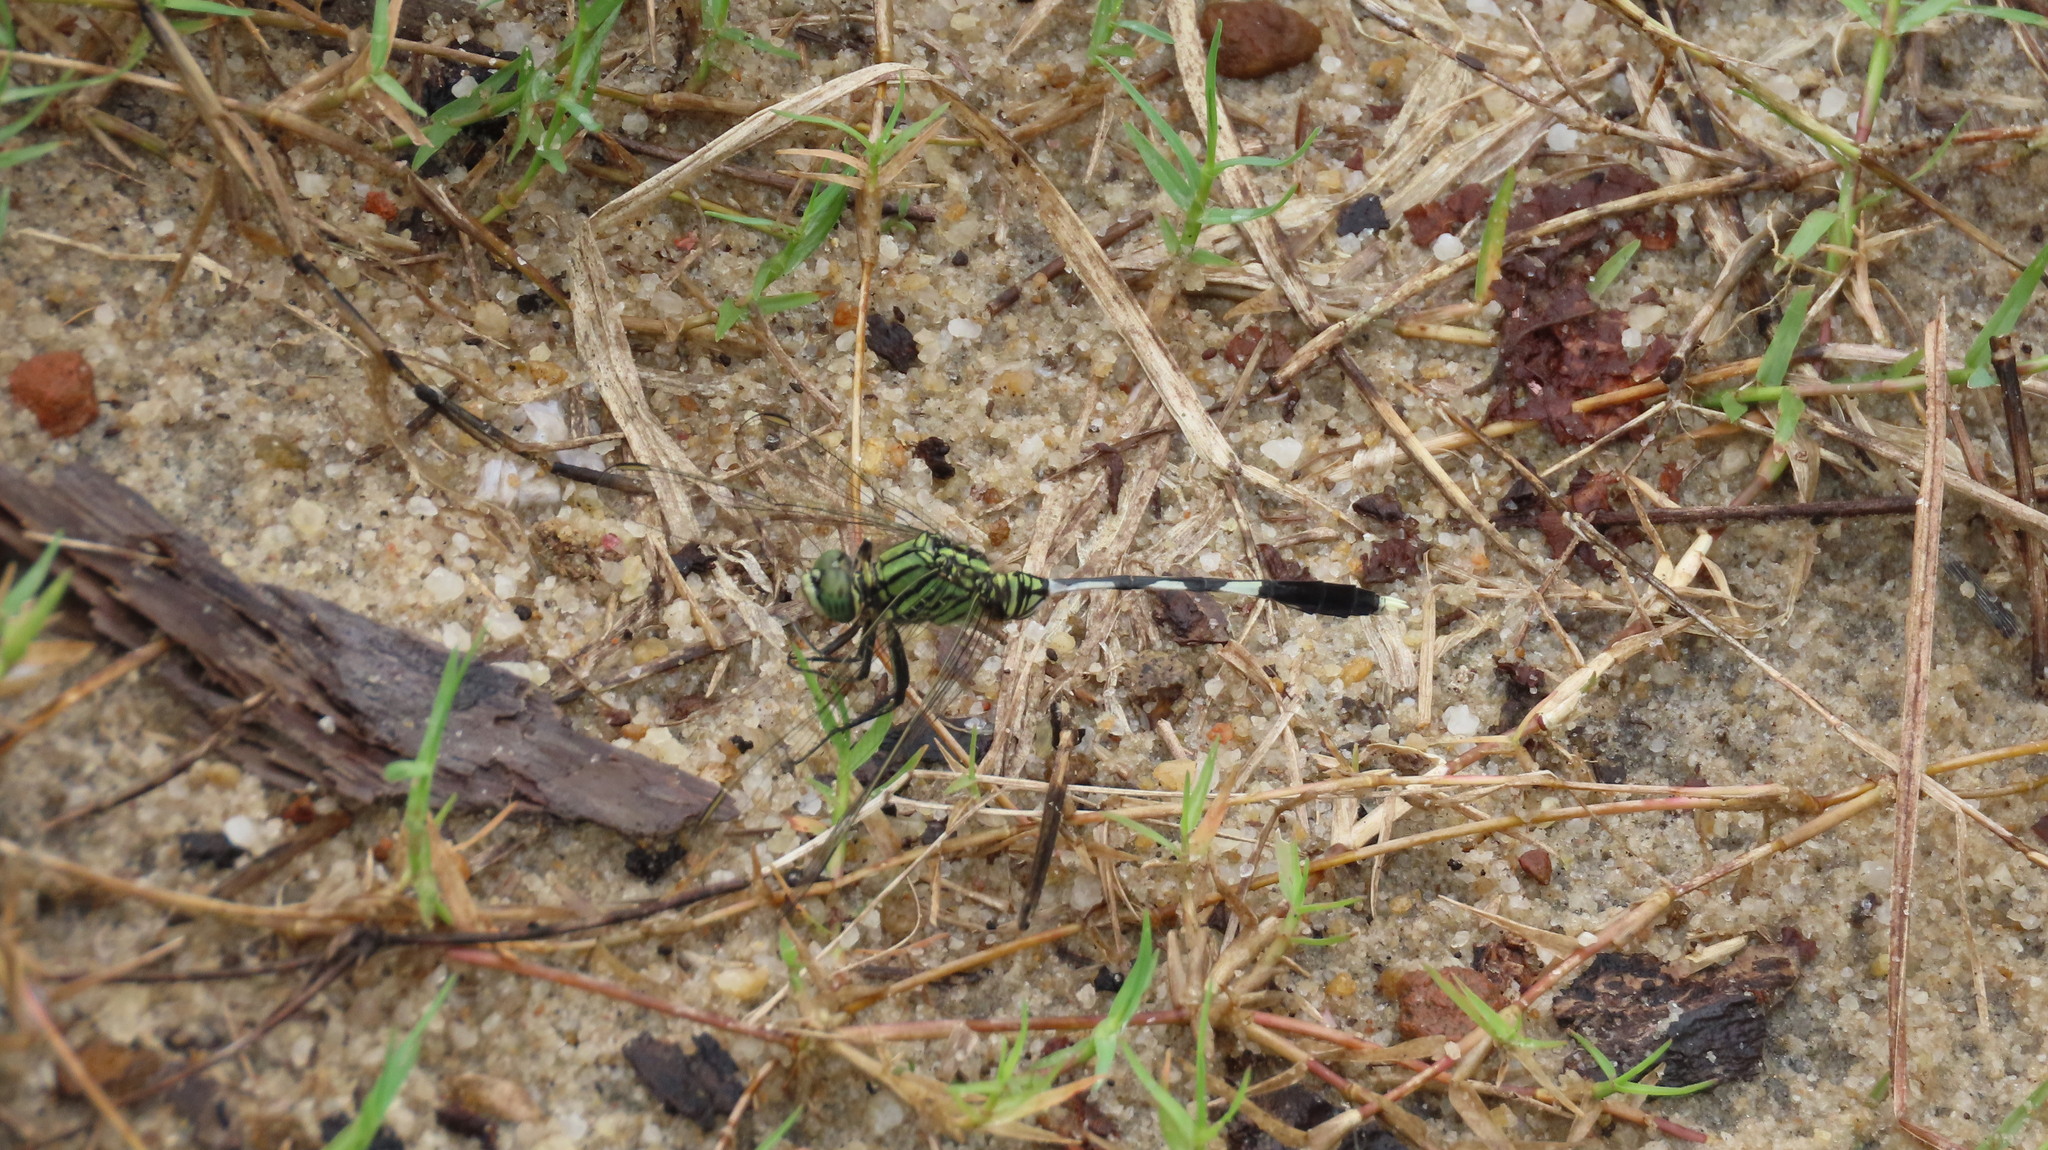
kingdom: Animalia
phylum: Arthropoda
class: Insecta
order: Odonata
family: Libellulidae
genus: Orthetrum
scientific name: Orthetrum sabina
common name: Slender skimmer
